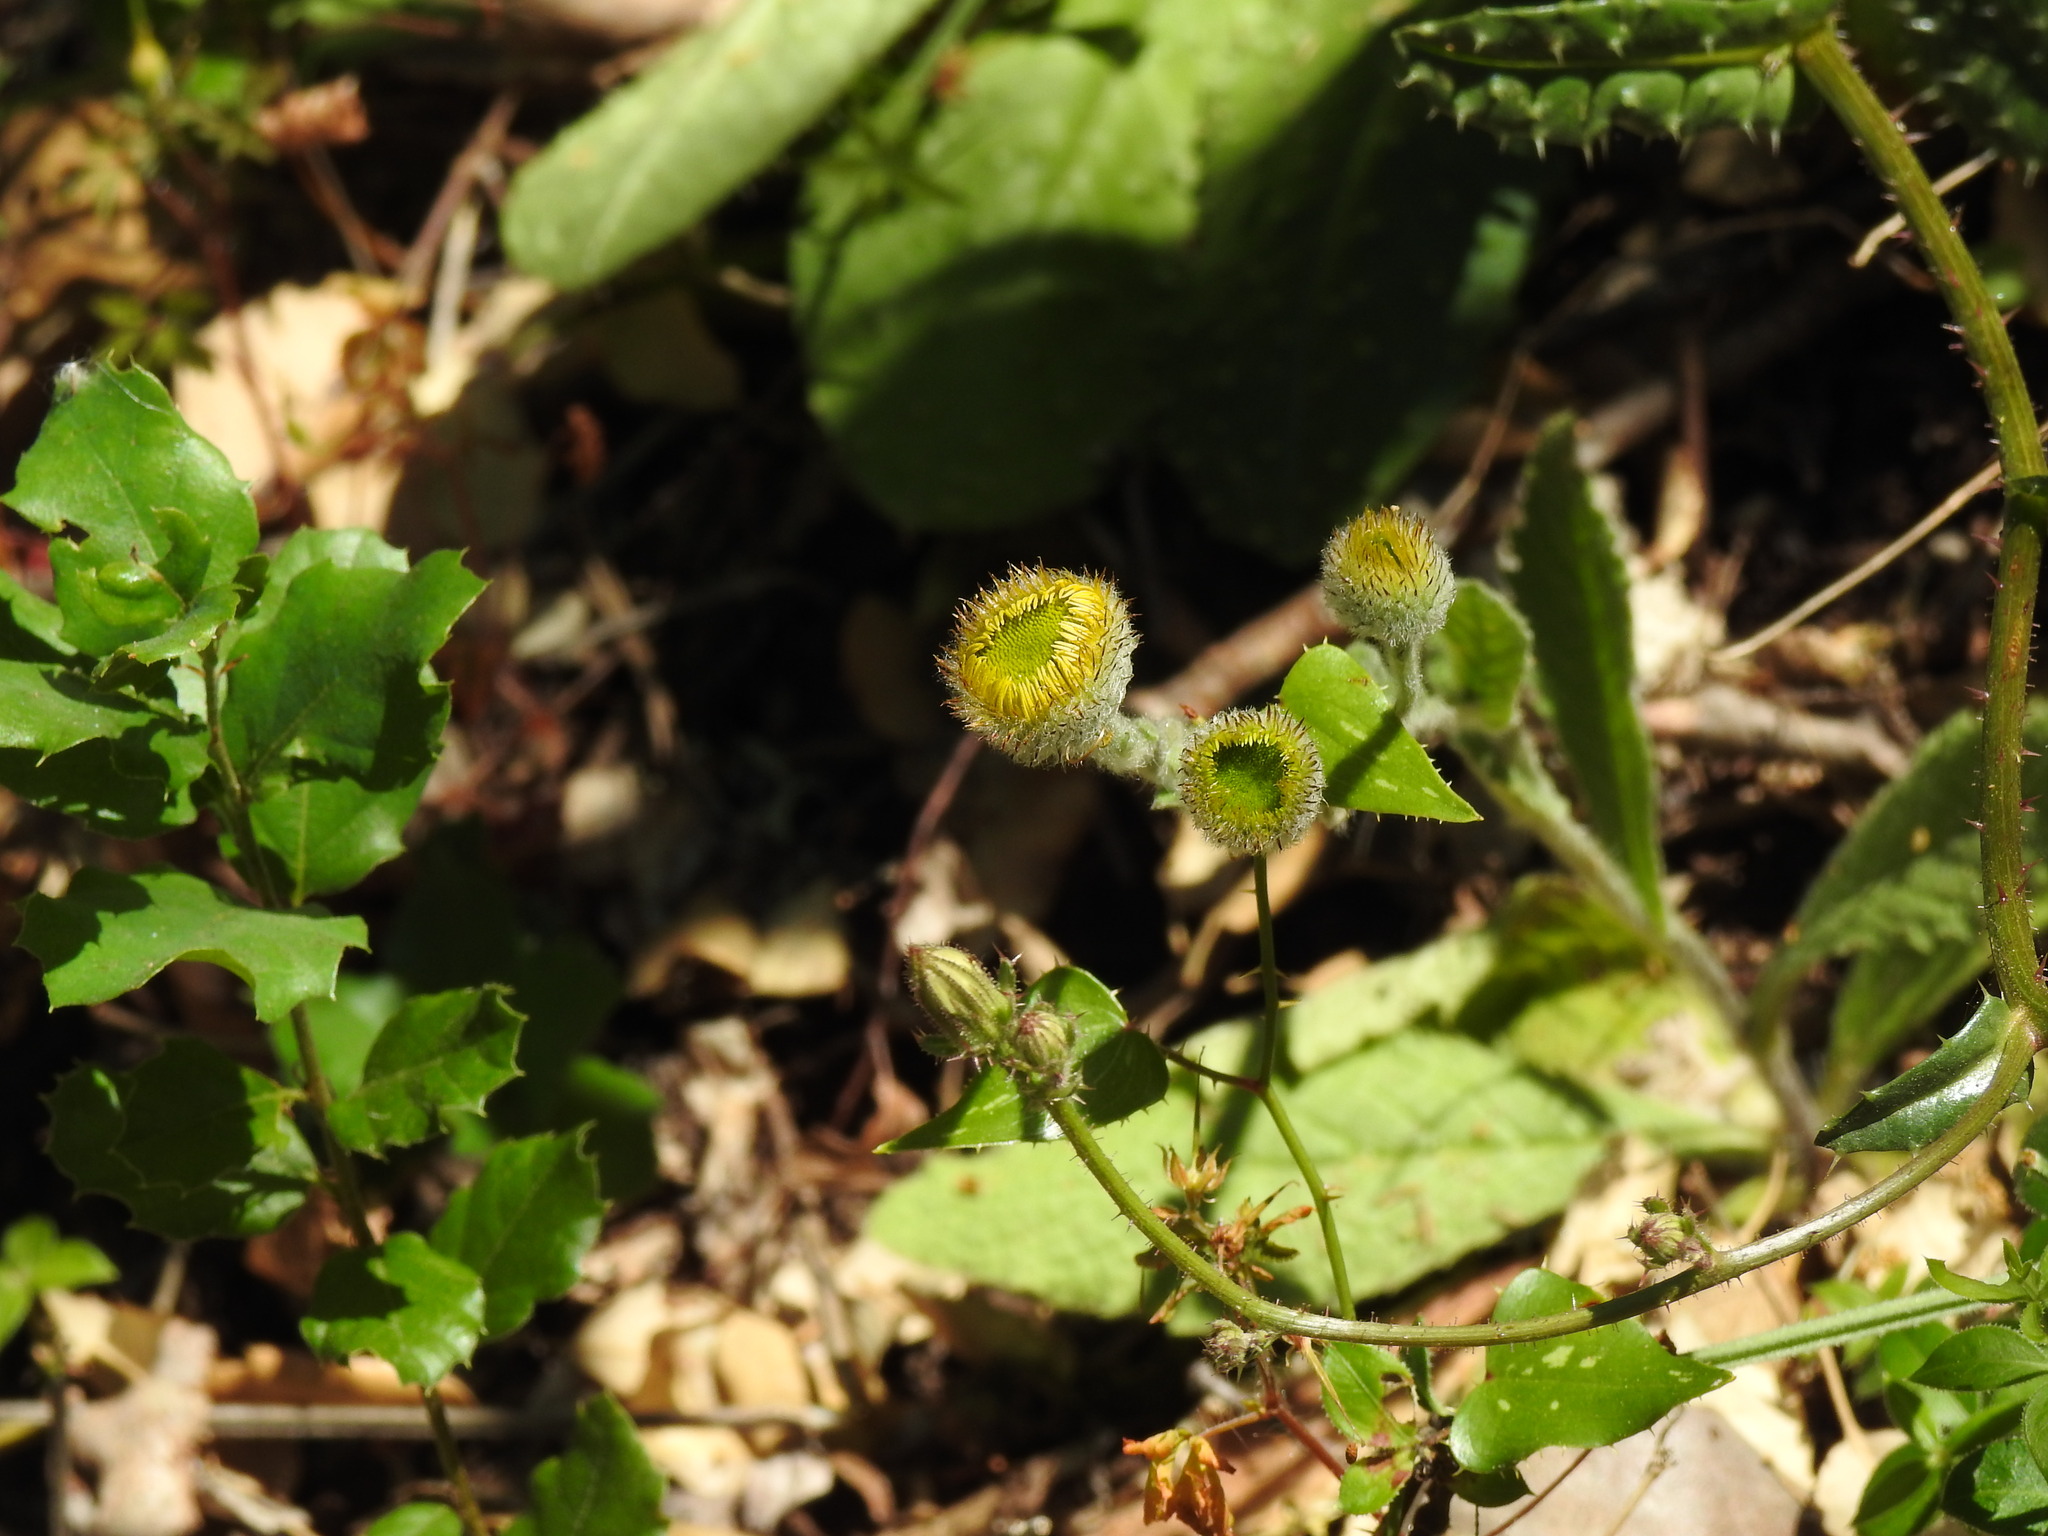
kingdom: Plantae
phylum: Tracheophyta
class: Magnoliopsida
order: Asterales
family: Asteraceae
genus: Pulicaria
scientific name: Pulicaria odora
